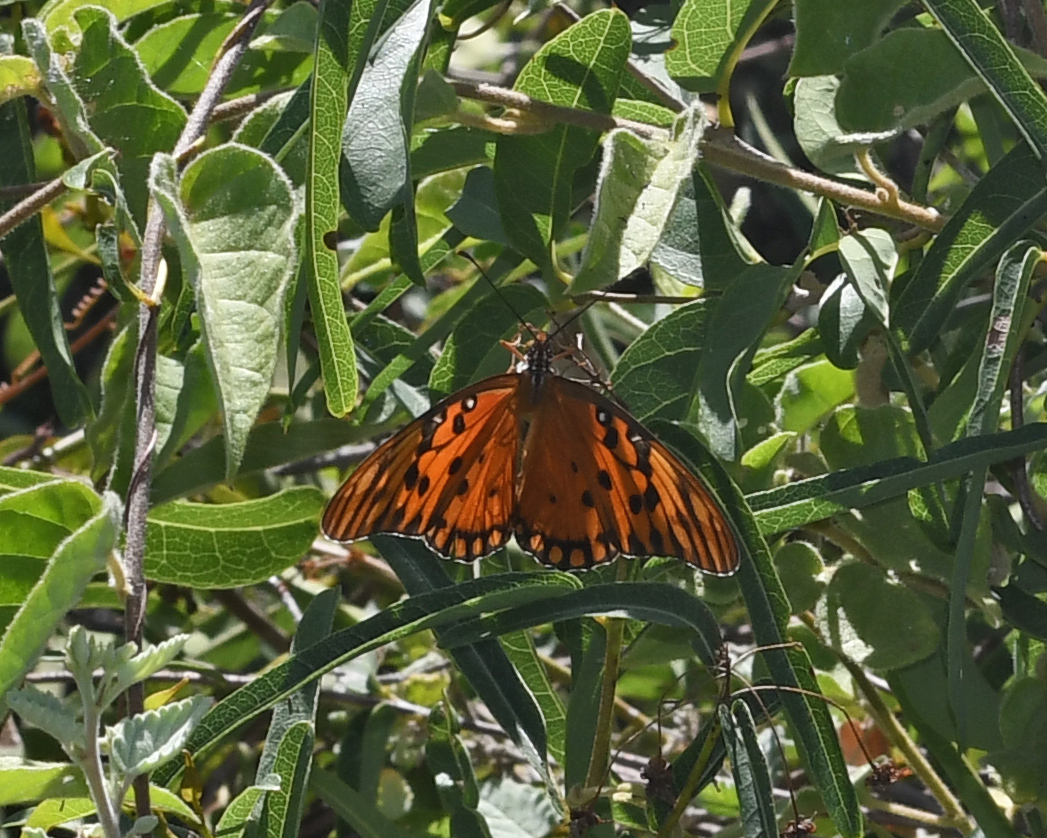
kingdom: Animalia
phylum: Arthropoda
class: Insecta
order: Lepidoptera
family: Nymphalidae
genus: Dione
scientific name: Dione vanillae
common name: Gulf fritillary
